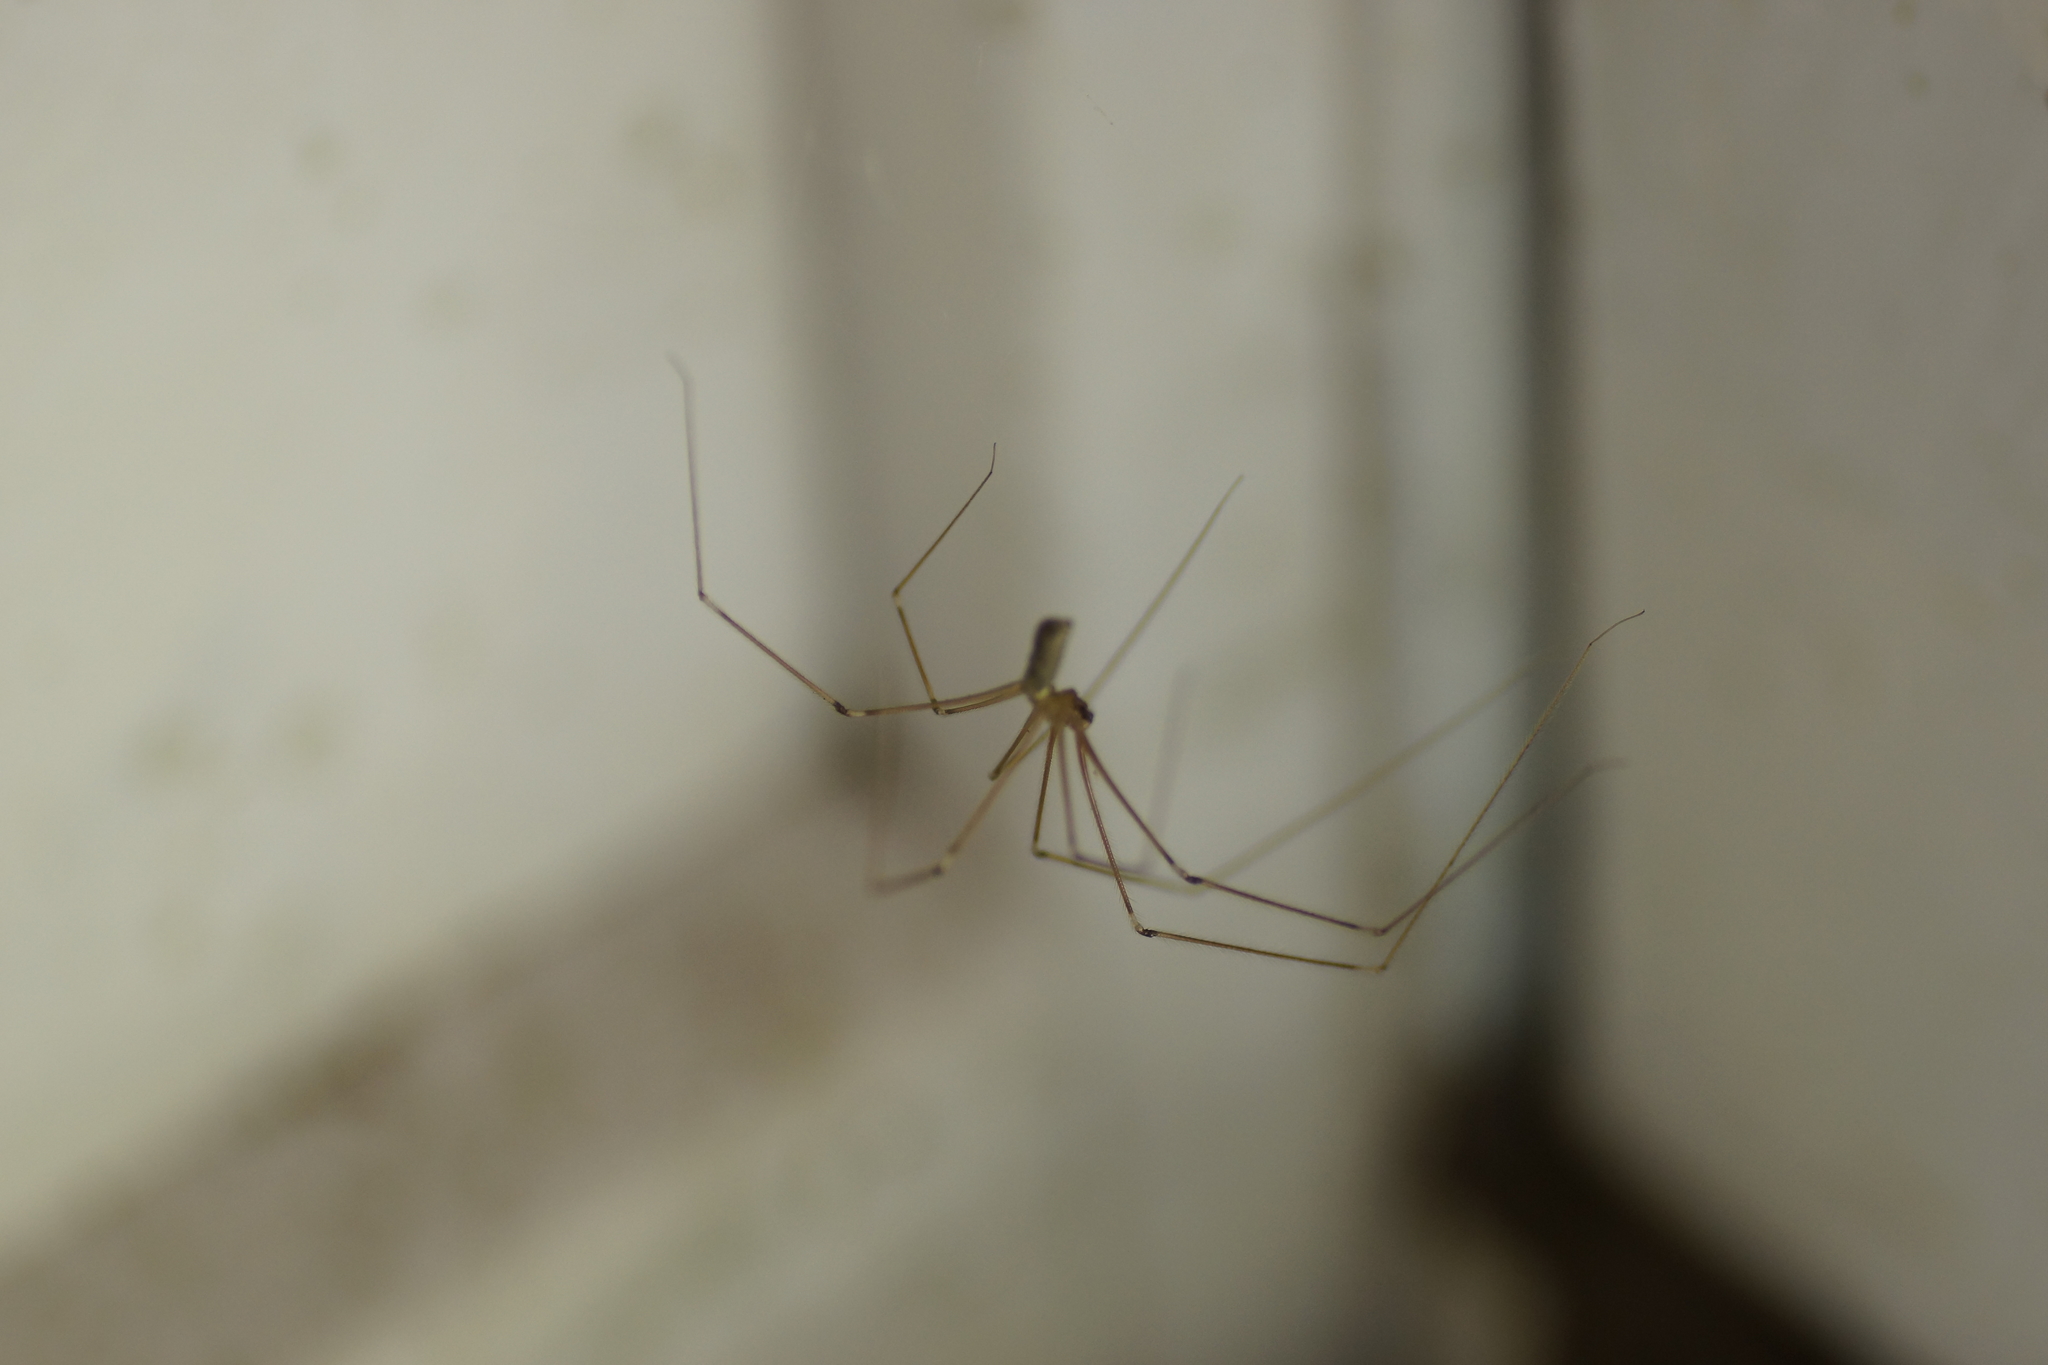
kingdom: Animalia
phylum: Arthropoda
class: Arachnida
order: Araneae
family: Pholcidae
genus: Pholcus
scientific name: Pholcus phalangioides
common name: Longbodied cellar spider
